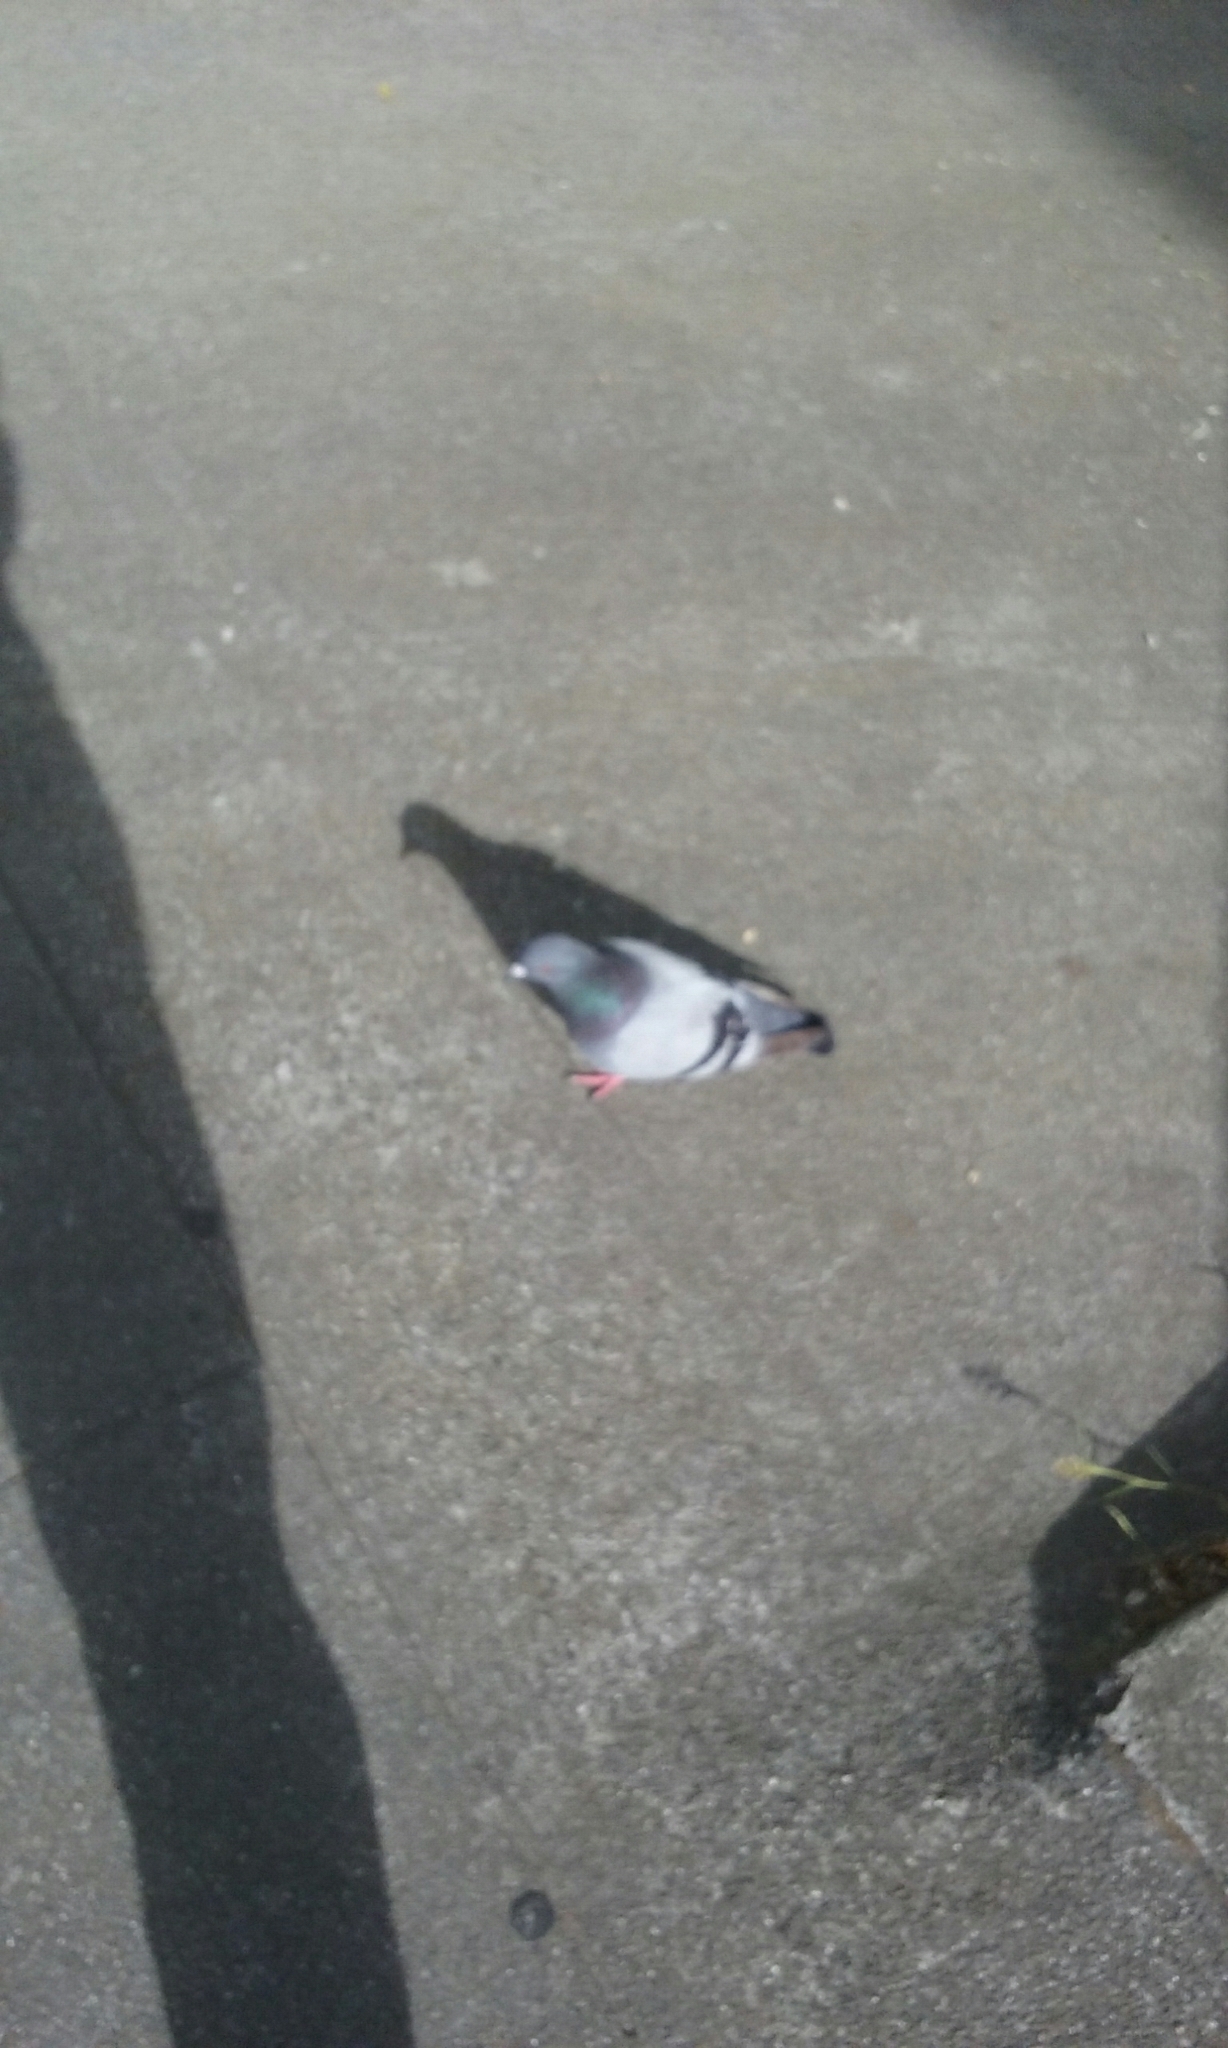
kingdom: Animalia
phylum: Chordata
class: Aves
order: Columbiformes
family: Columbidae
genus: Columba
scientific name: Columba livia
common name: Rock pigeon
